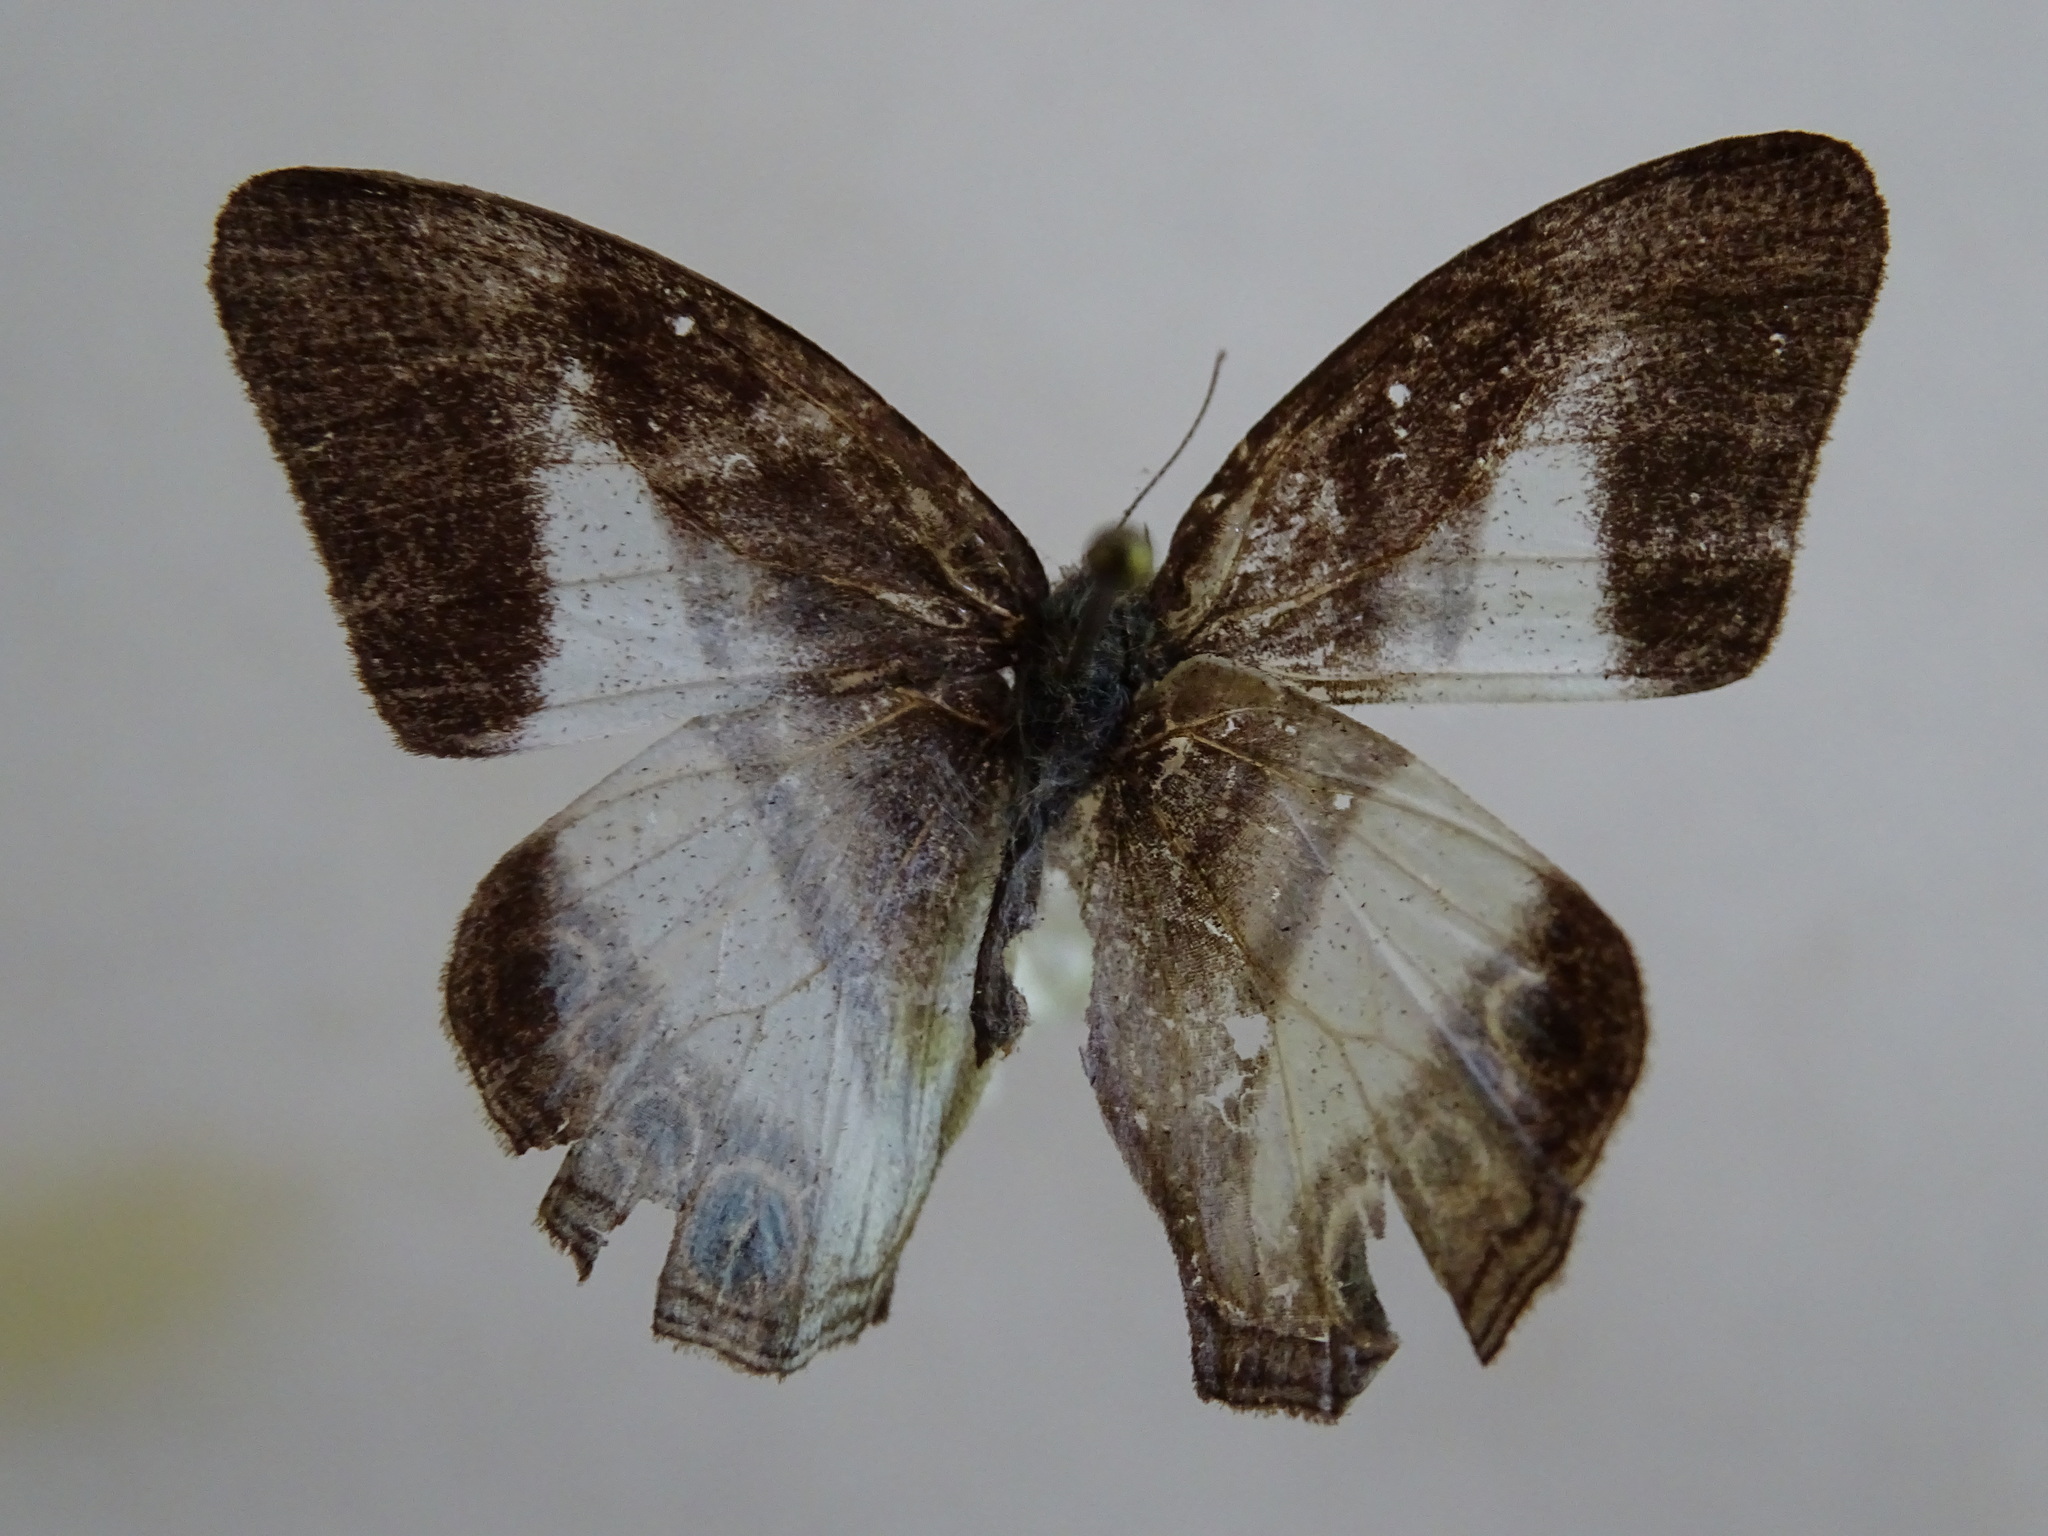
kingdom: Animalia
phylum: Arthropoda
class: Insecta
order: Lepidoptera
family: Nymphalidae
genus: Pareuptychia
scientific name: Pareuptychia metaleuca
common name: White-banded satyr
